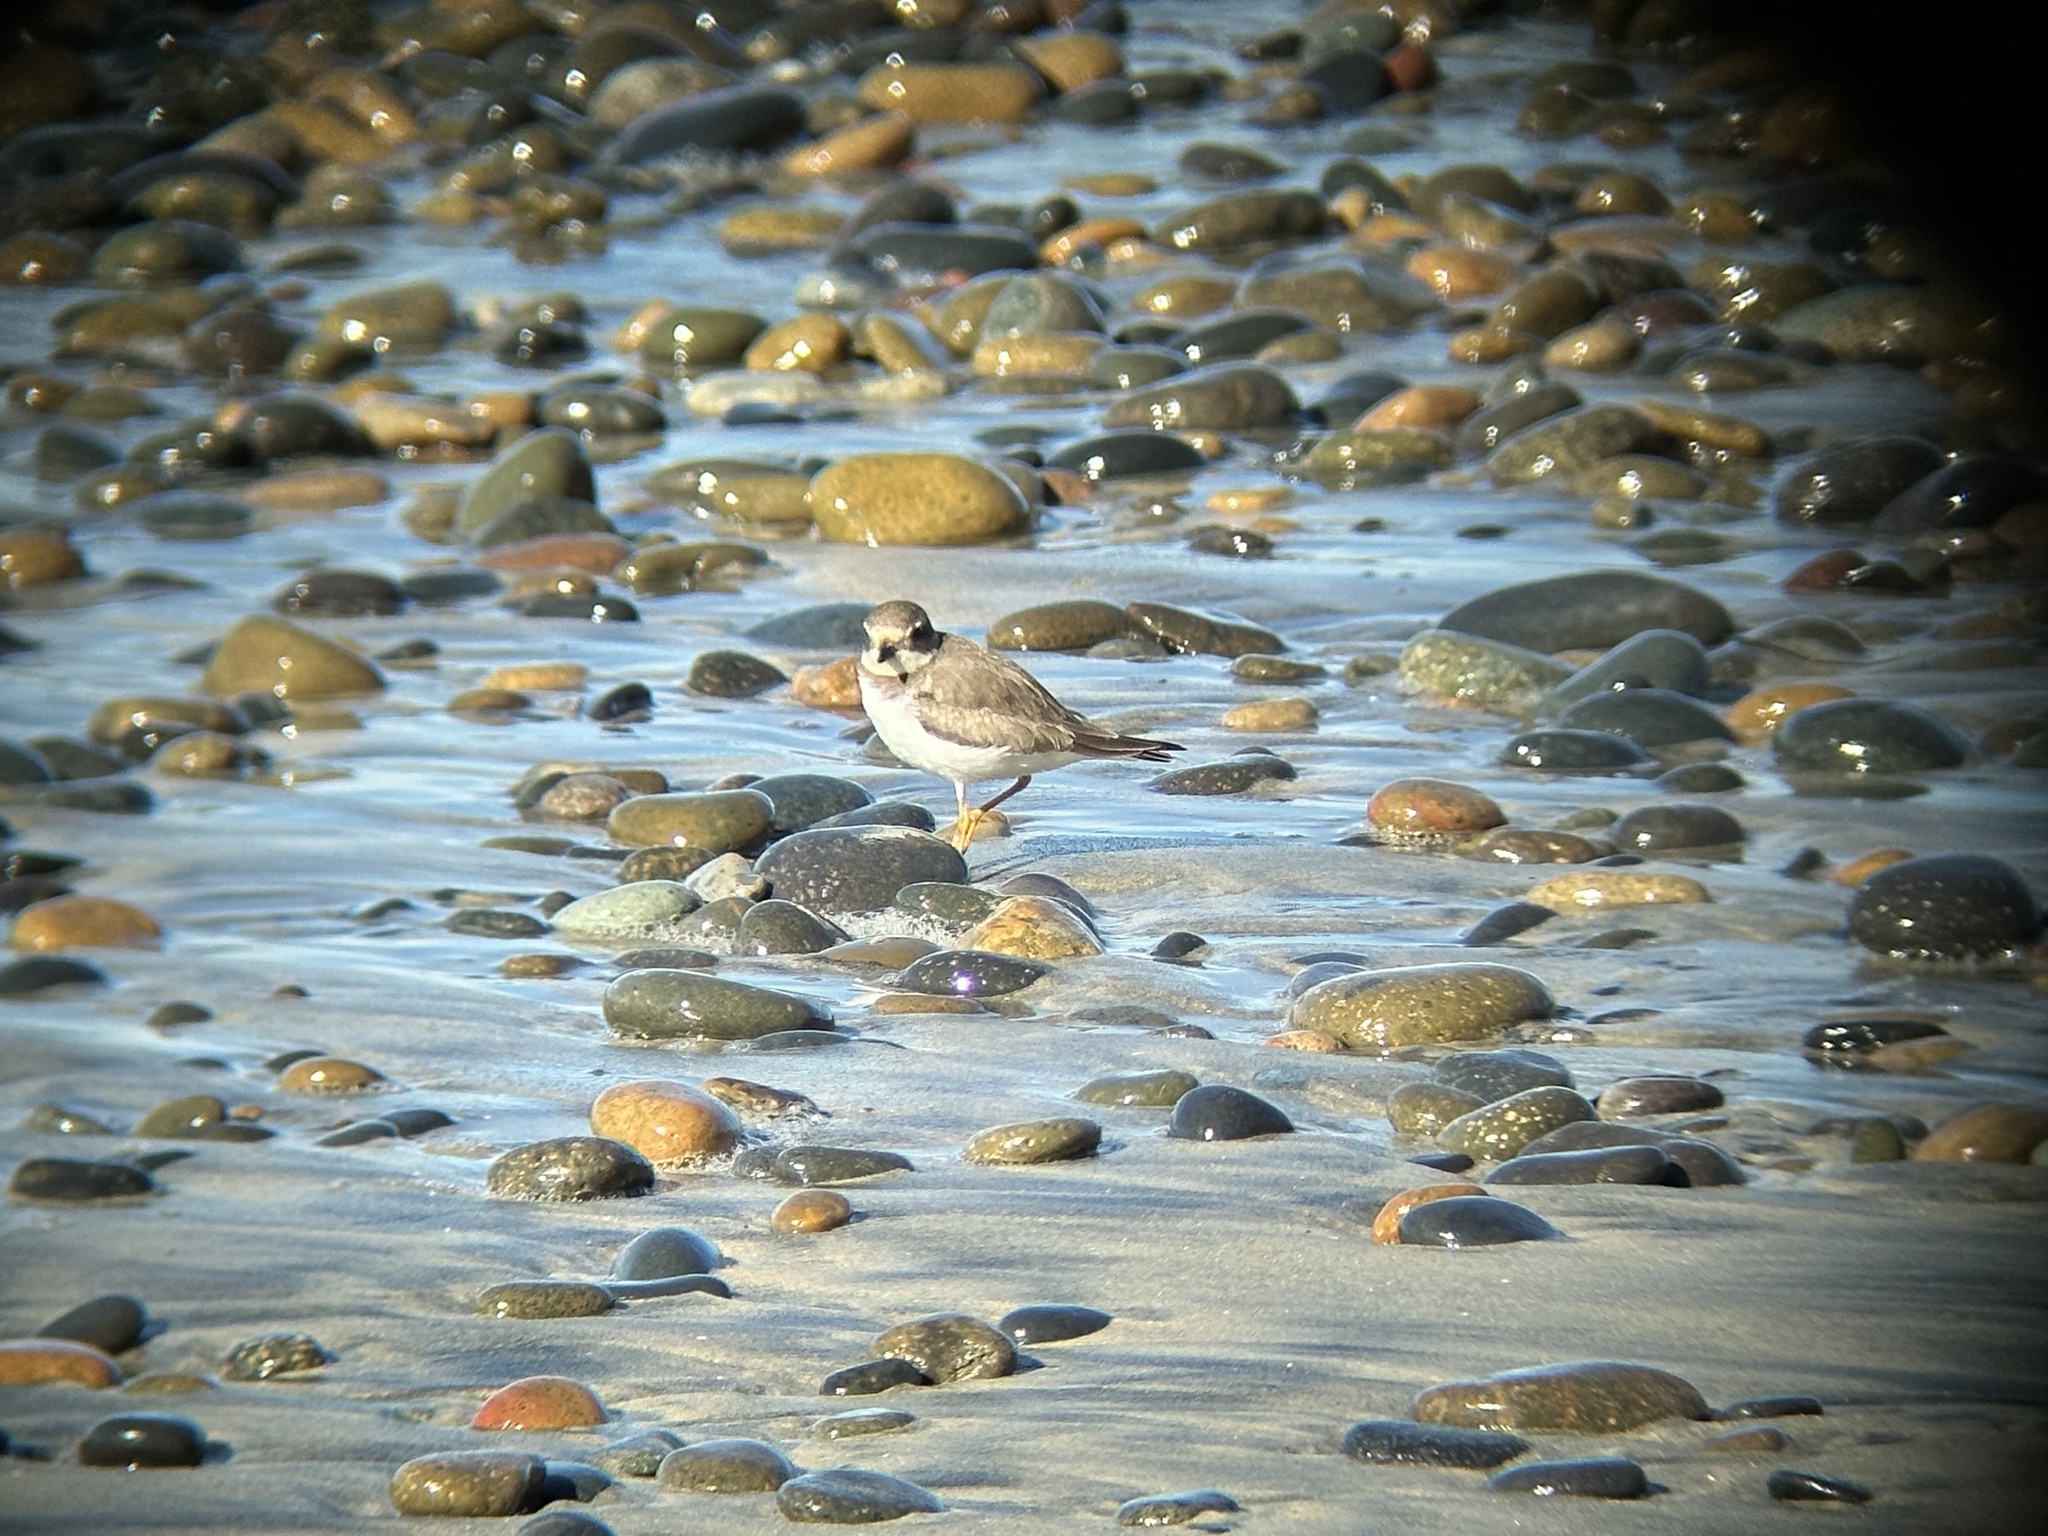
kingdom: Animalia
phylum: Chordata
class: Aves
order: Charadriiformes
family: Charadriidae
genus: Charadrius
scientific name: Charadrius semipalmatus
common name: Semipalmated plover
